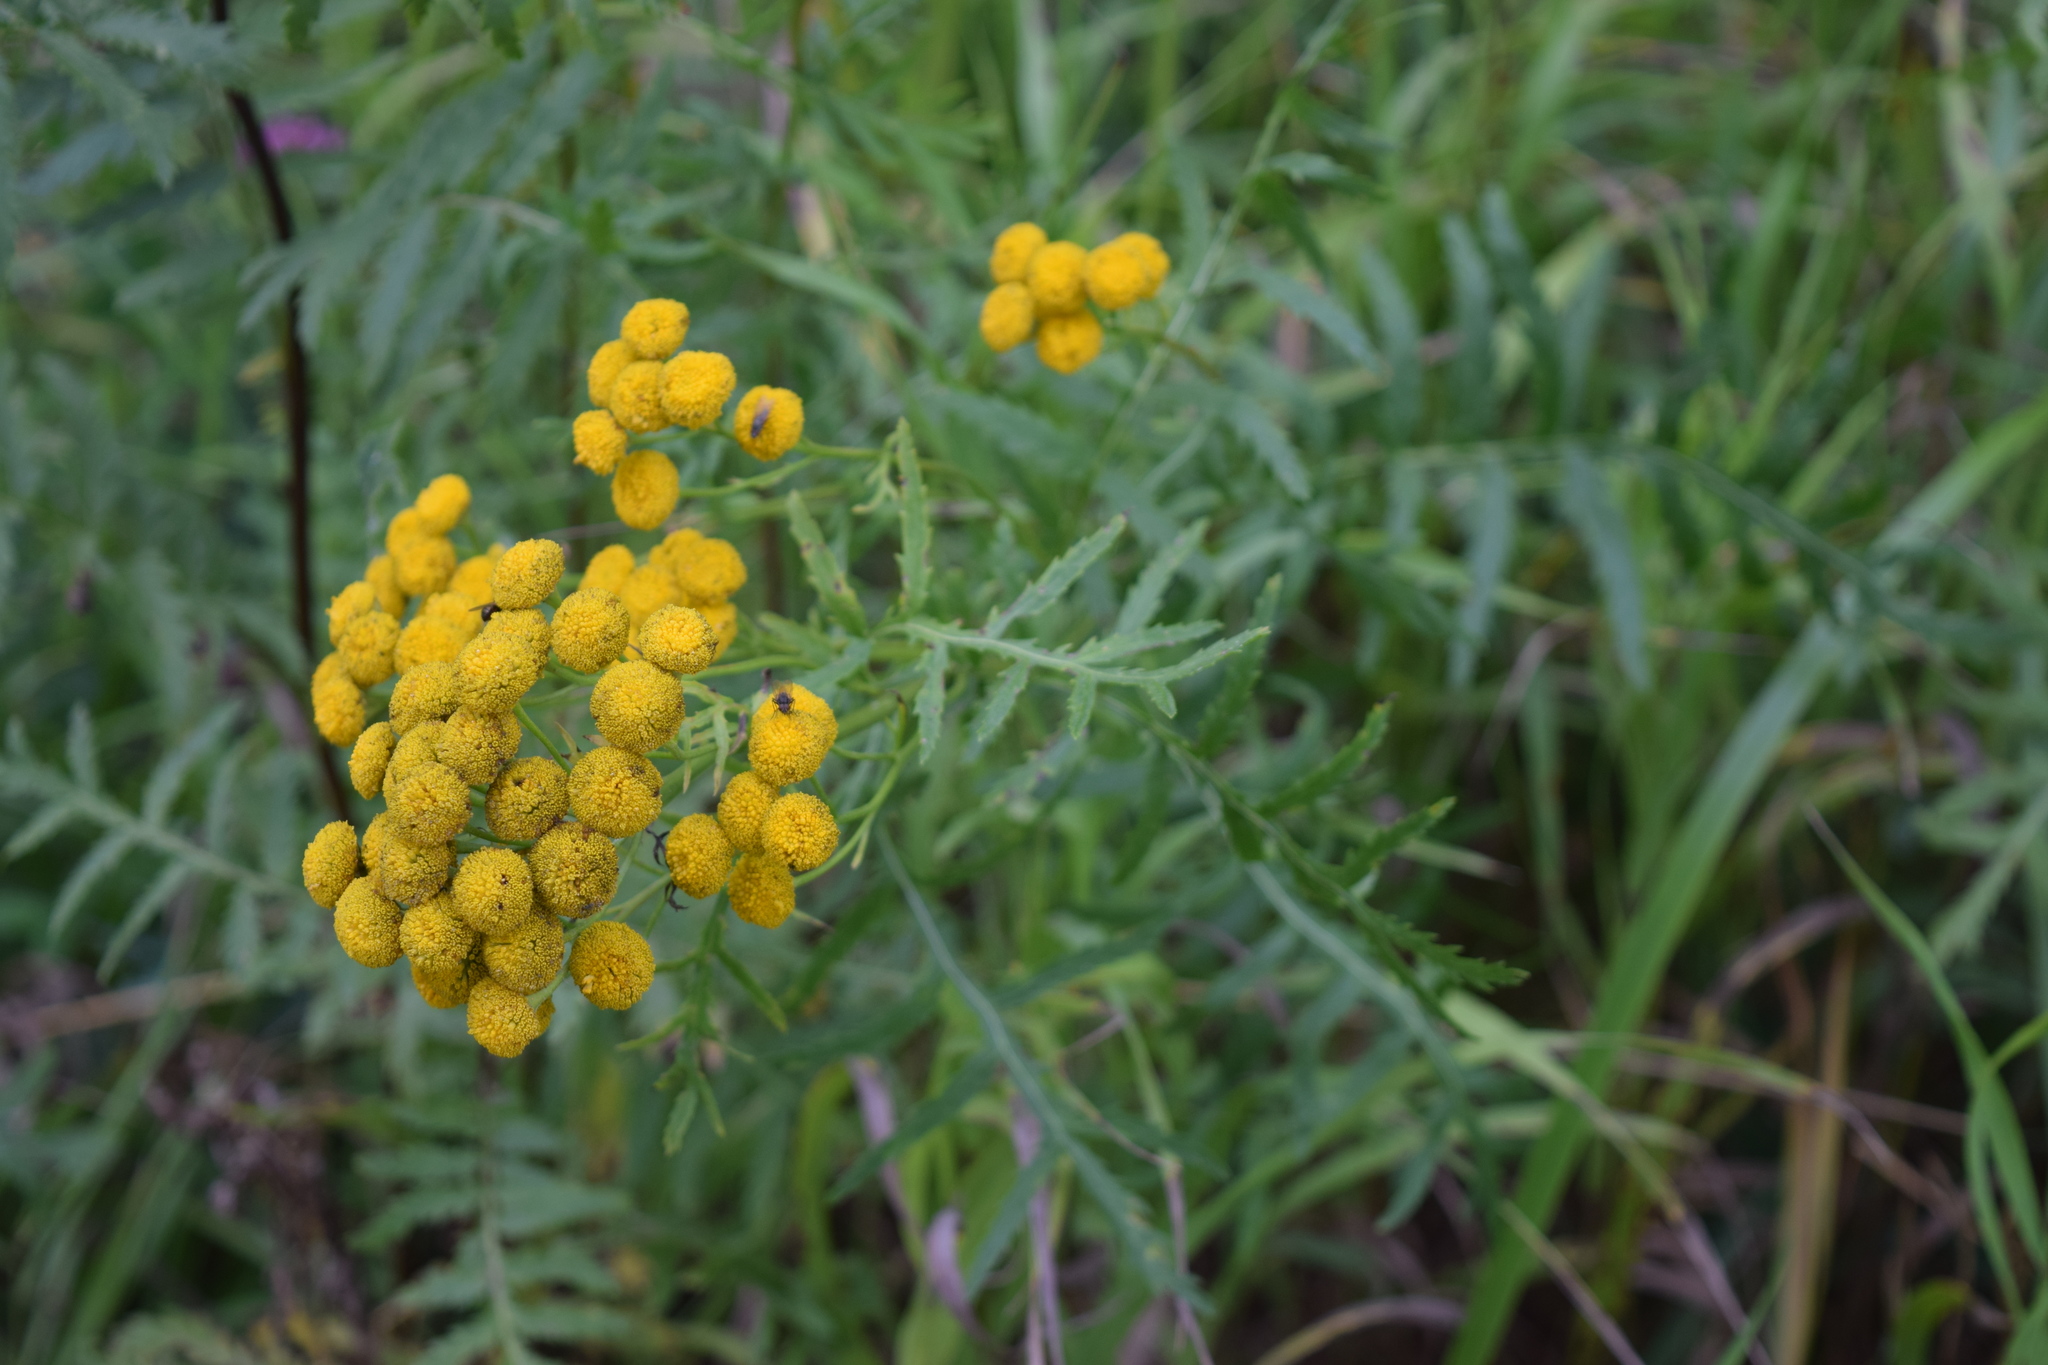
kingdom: Plantae
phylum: Tracheophyta
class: Magnoliopsida
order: Asterales
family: Asteraceae
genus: Tanacetum
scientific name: Tanacetum vulgare
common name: Common tansy
